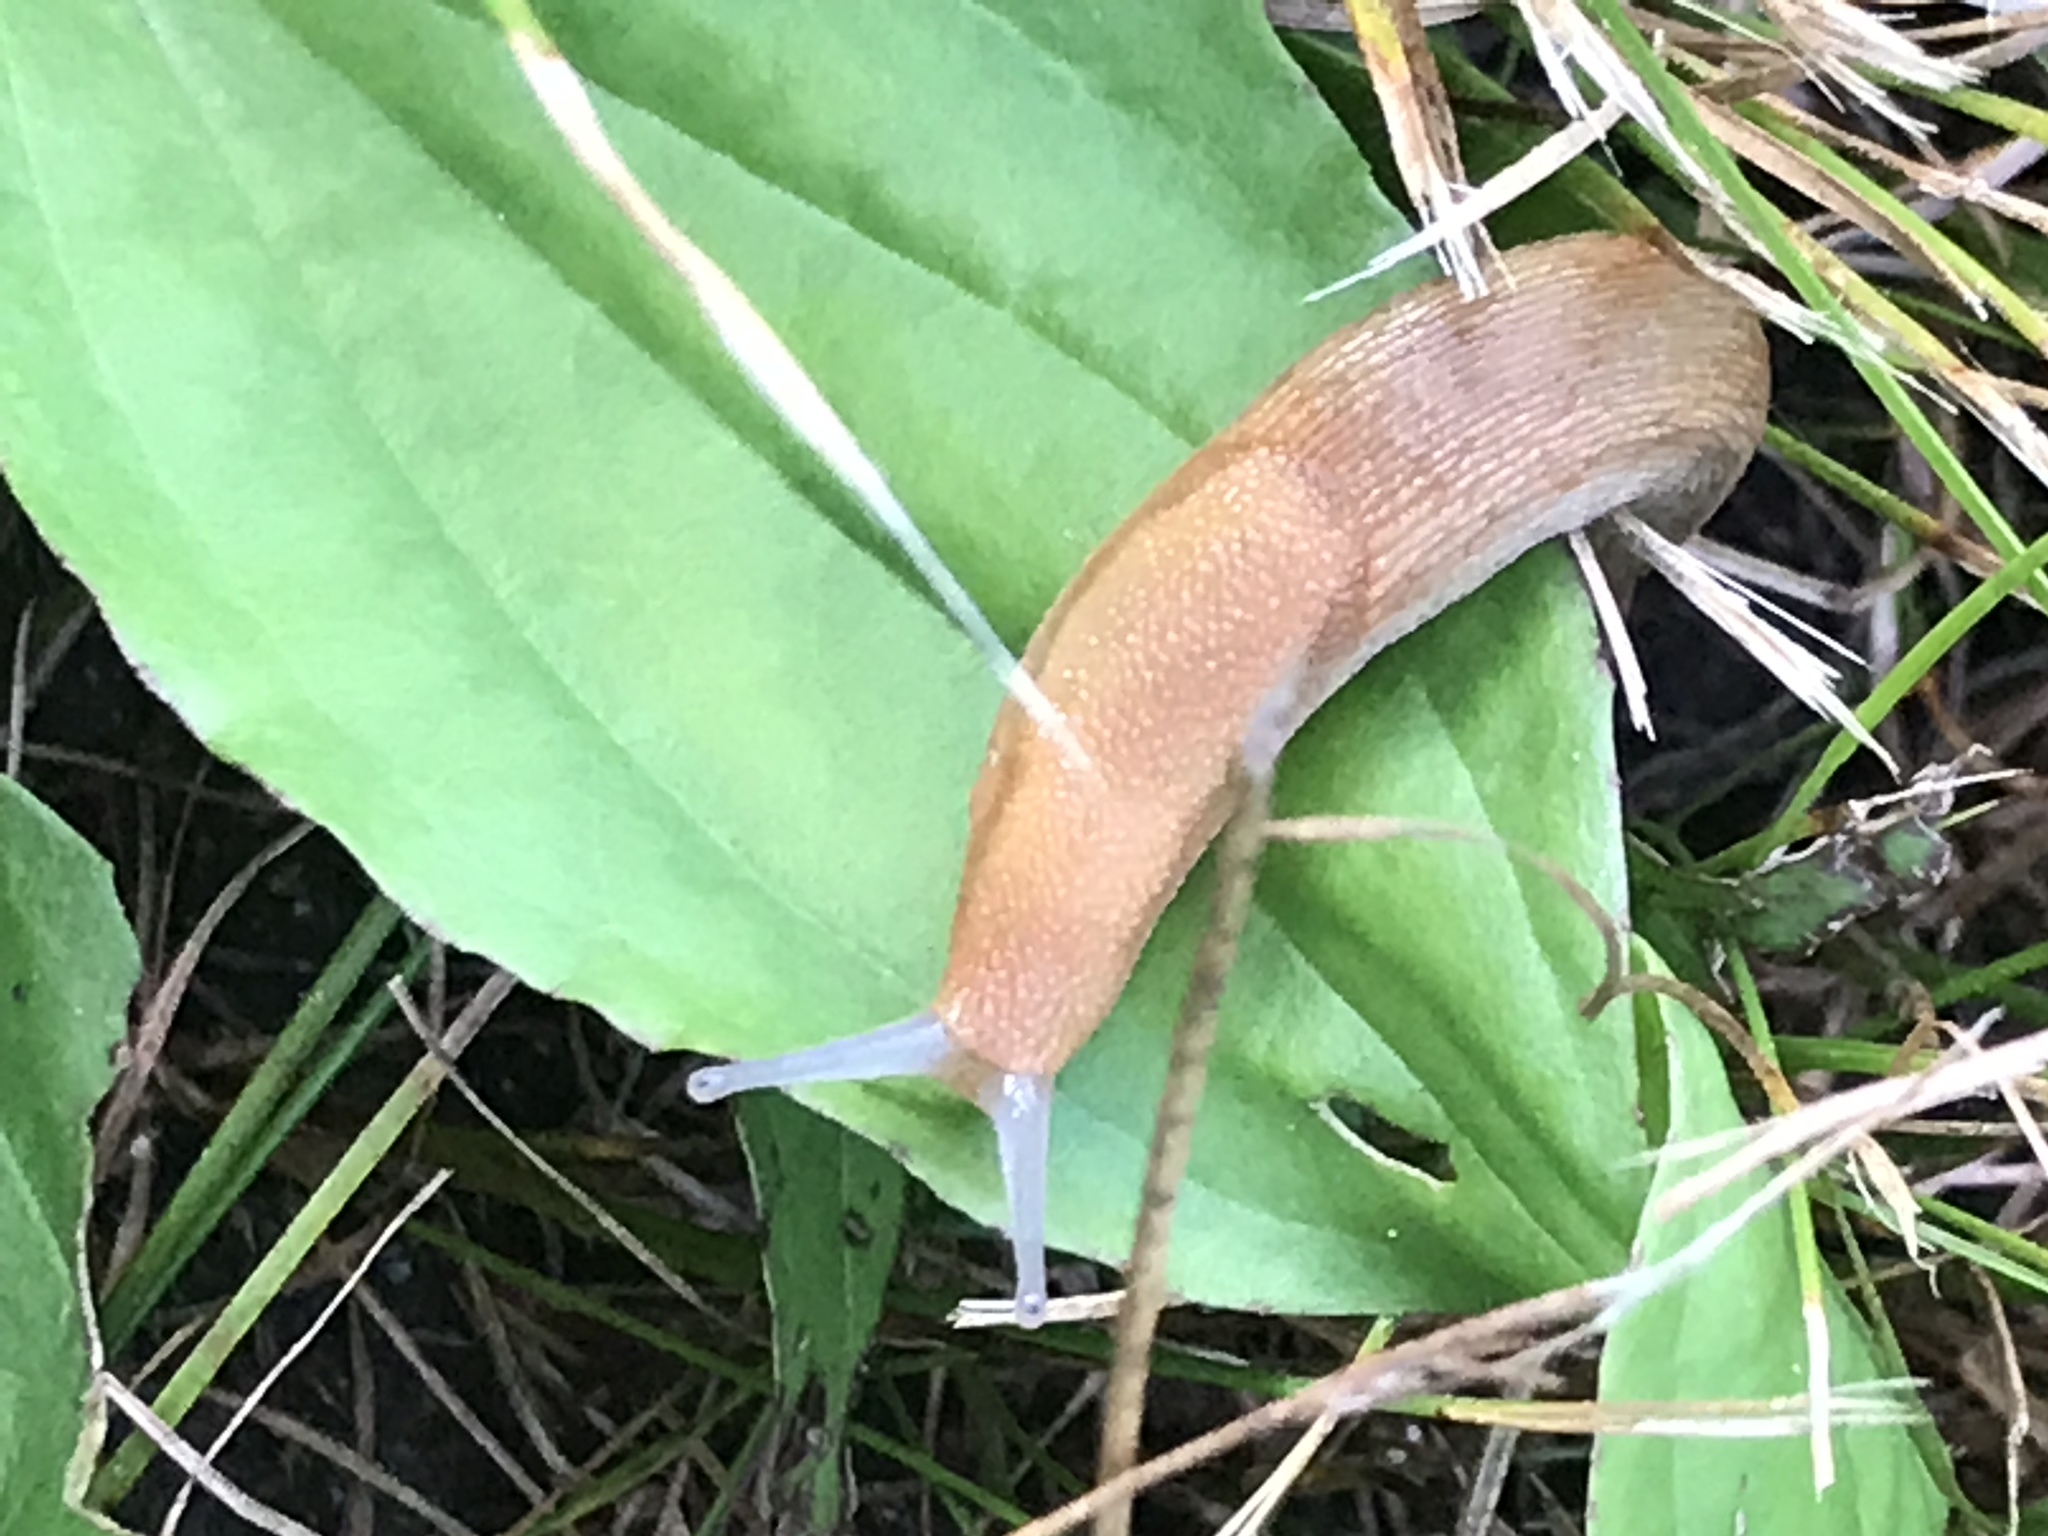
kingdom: Animalia
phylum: Mollusca
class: Gastropoda
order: Stylommatophora
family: Arionidae
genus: Arion
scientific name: Arion subfuscus
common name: Dusky arion
